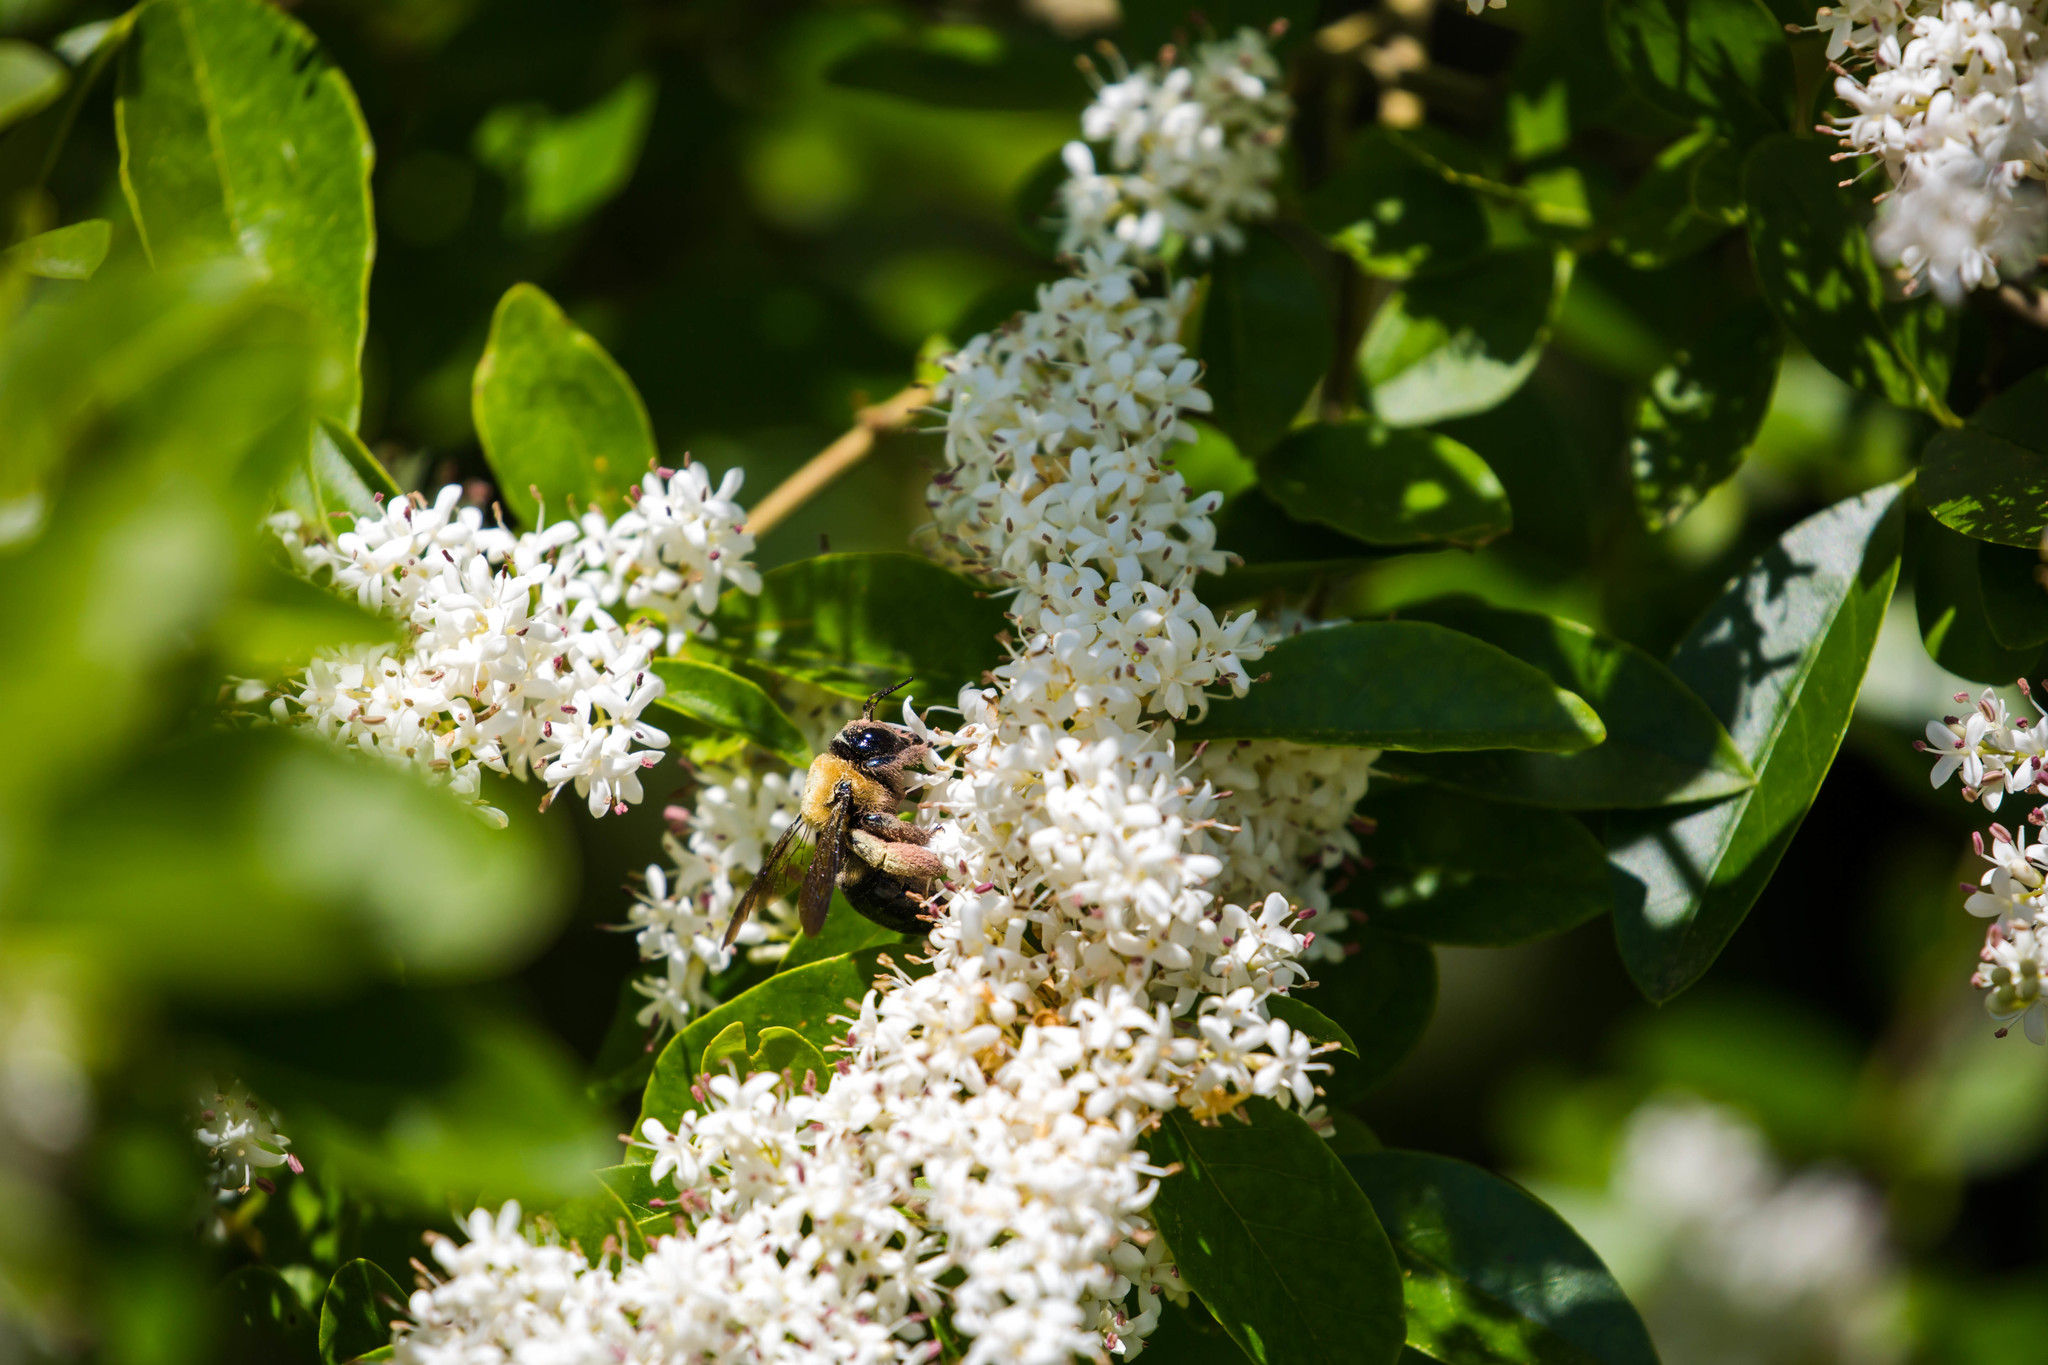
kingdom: Animalia
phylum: Arthropoda
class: Insecta
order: Hymenoptera
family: Apidae
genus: Xylocopa
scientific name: Xylocopa virginica
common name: Carpenter bee
